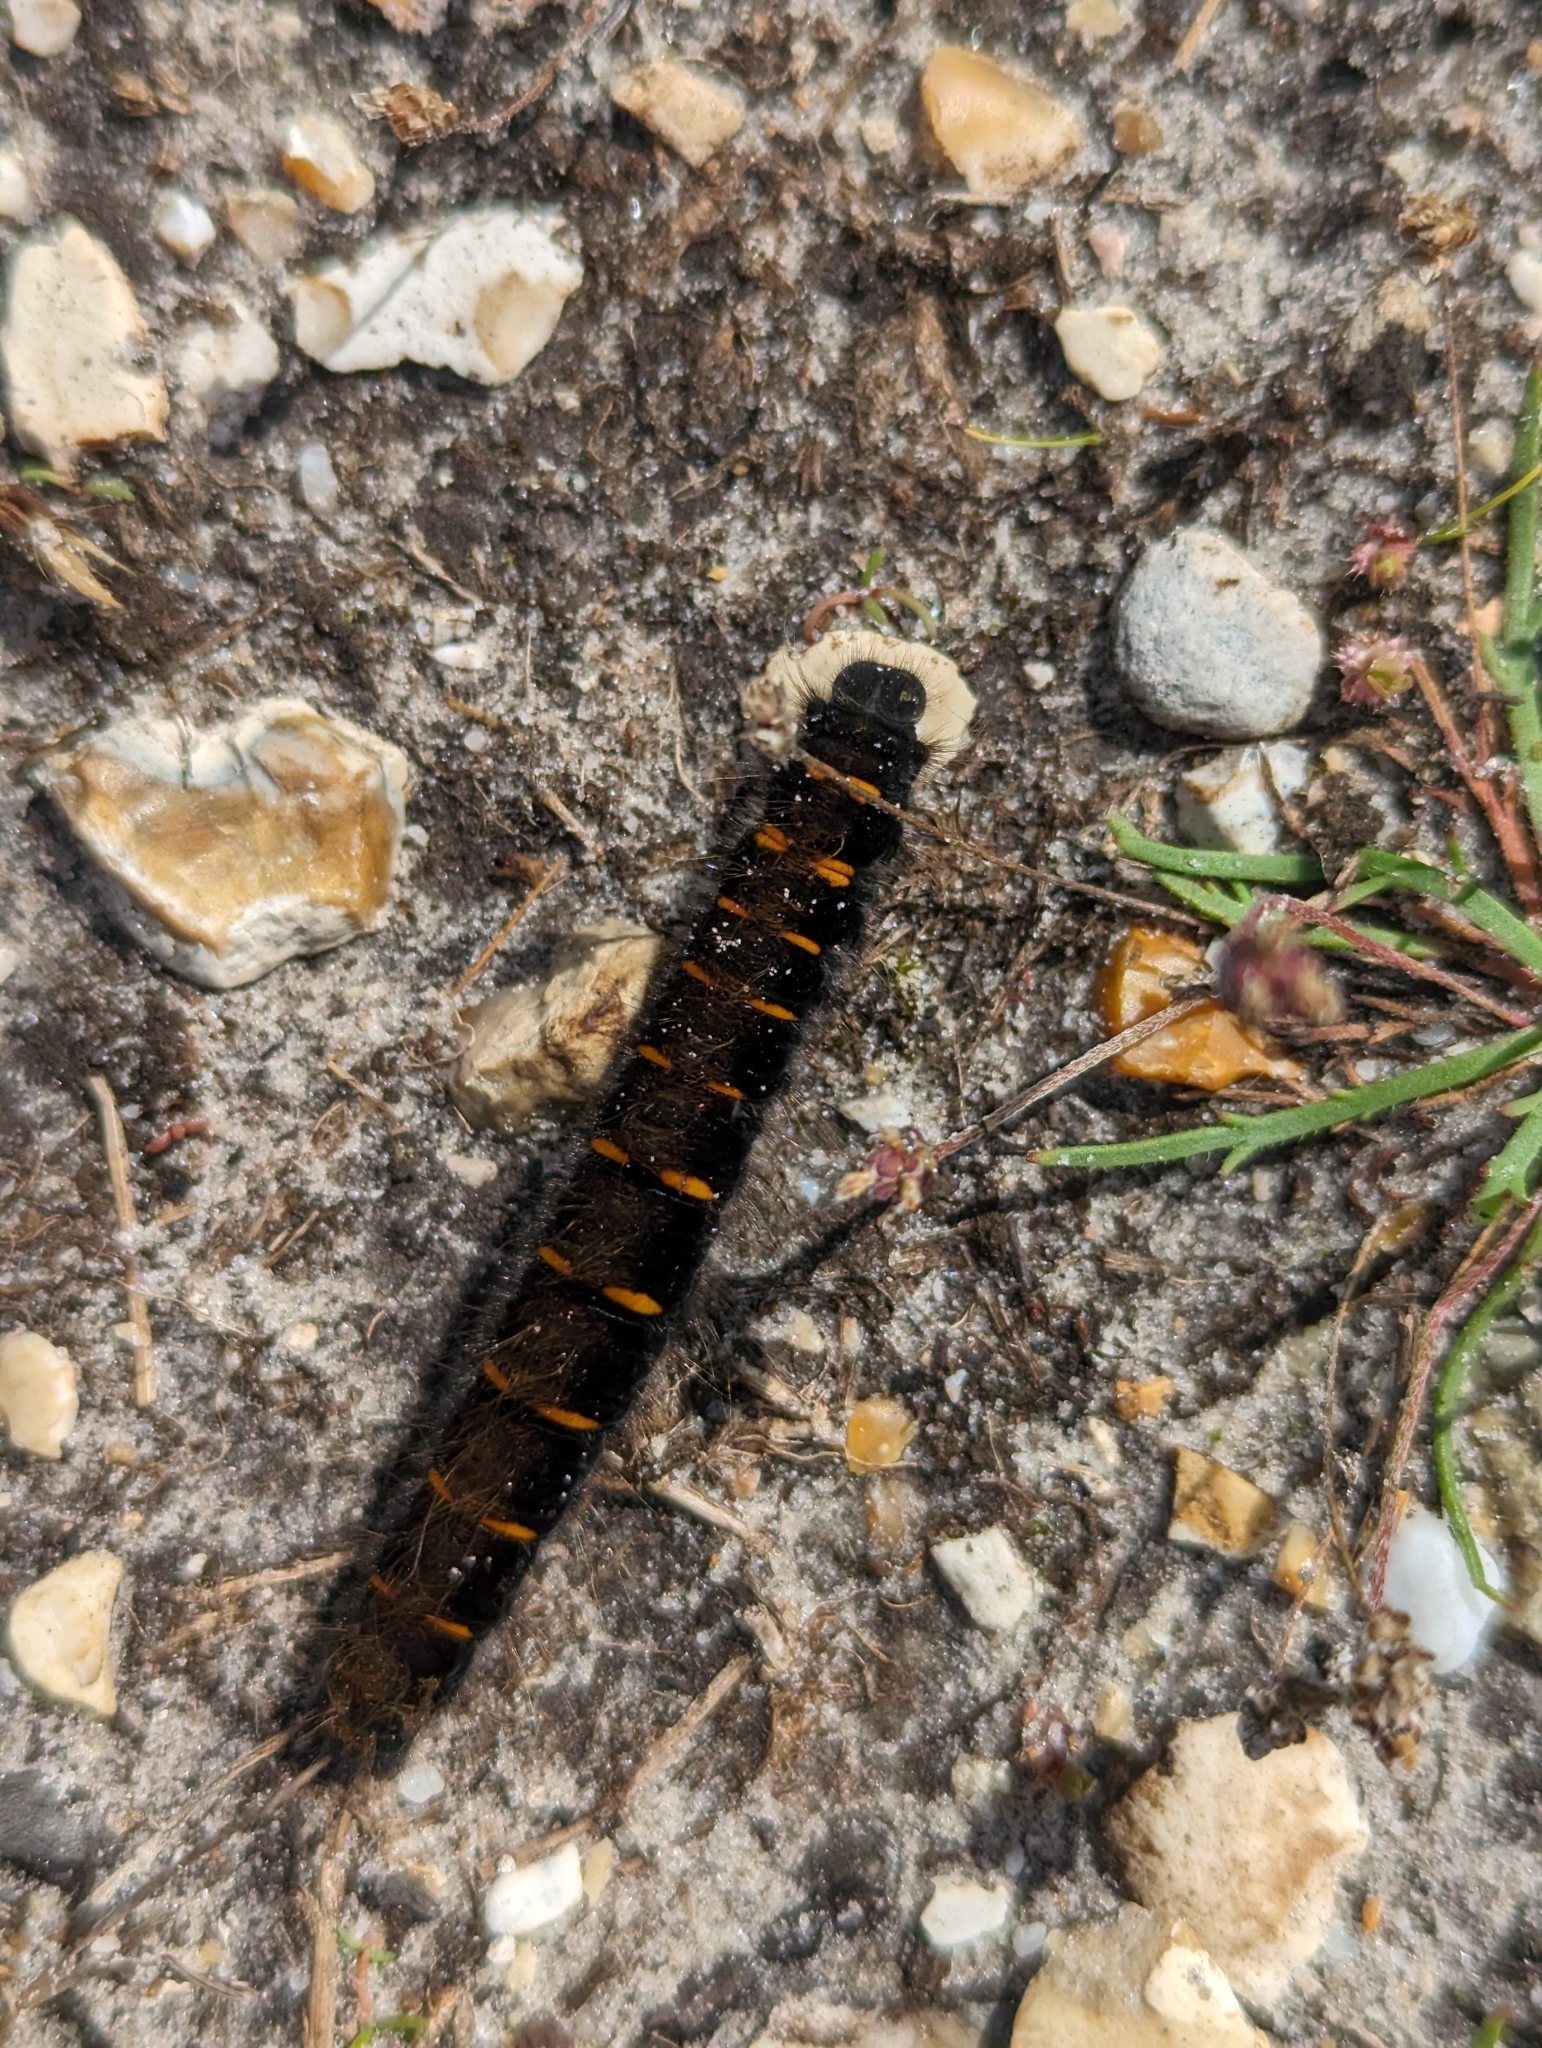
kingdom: Animalia
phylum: Arthropoda
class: Insecta
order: Lepidoptera
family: Lasiocampidae
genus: Macrothylacia
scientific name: Macrothylacia rubi
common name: Fox moth
